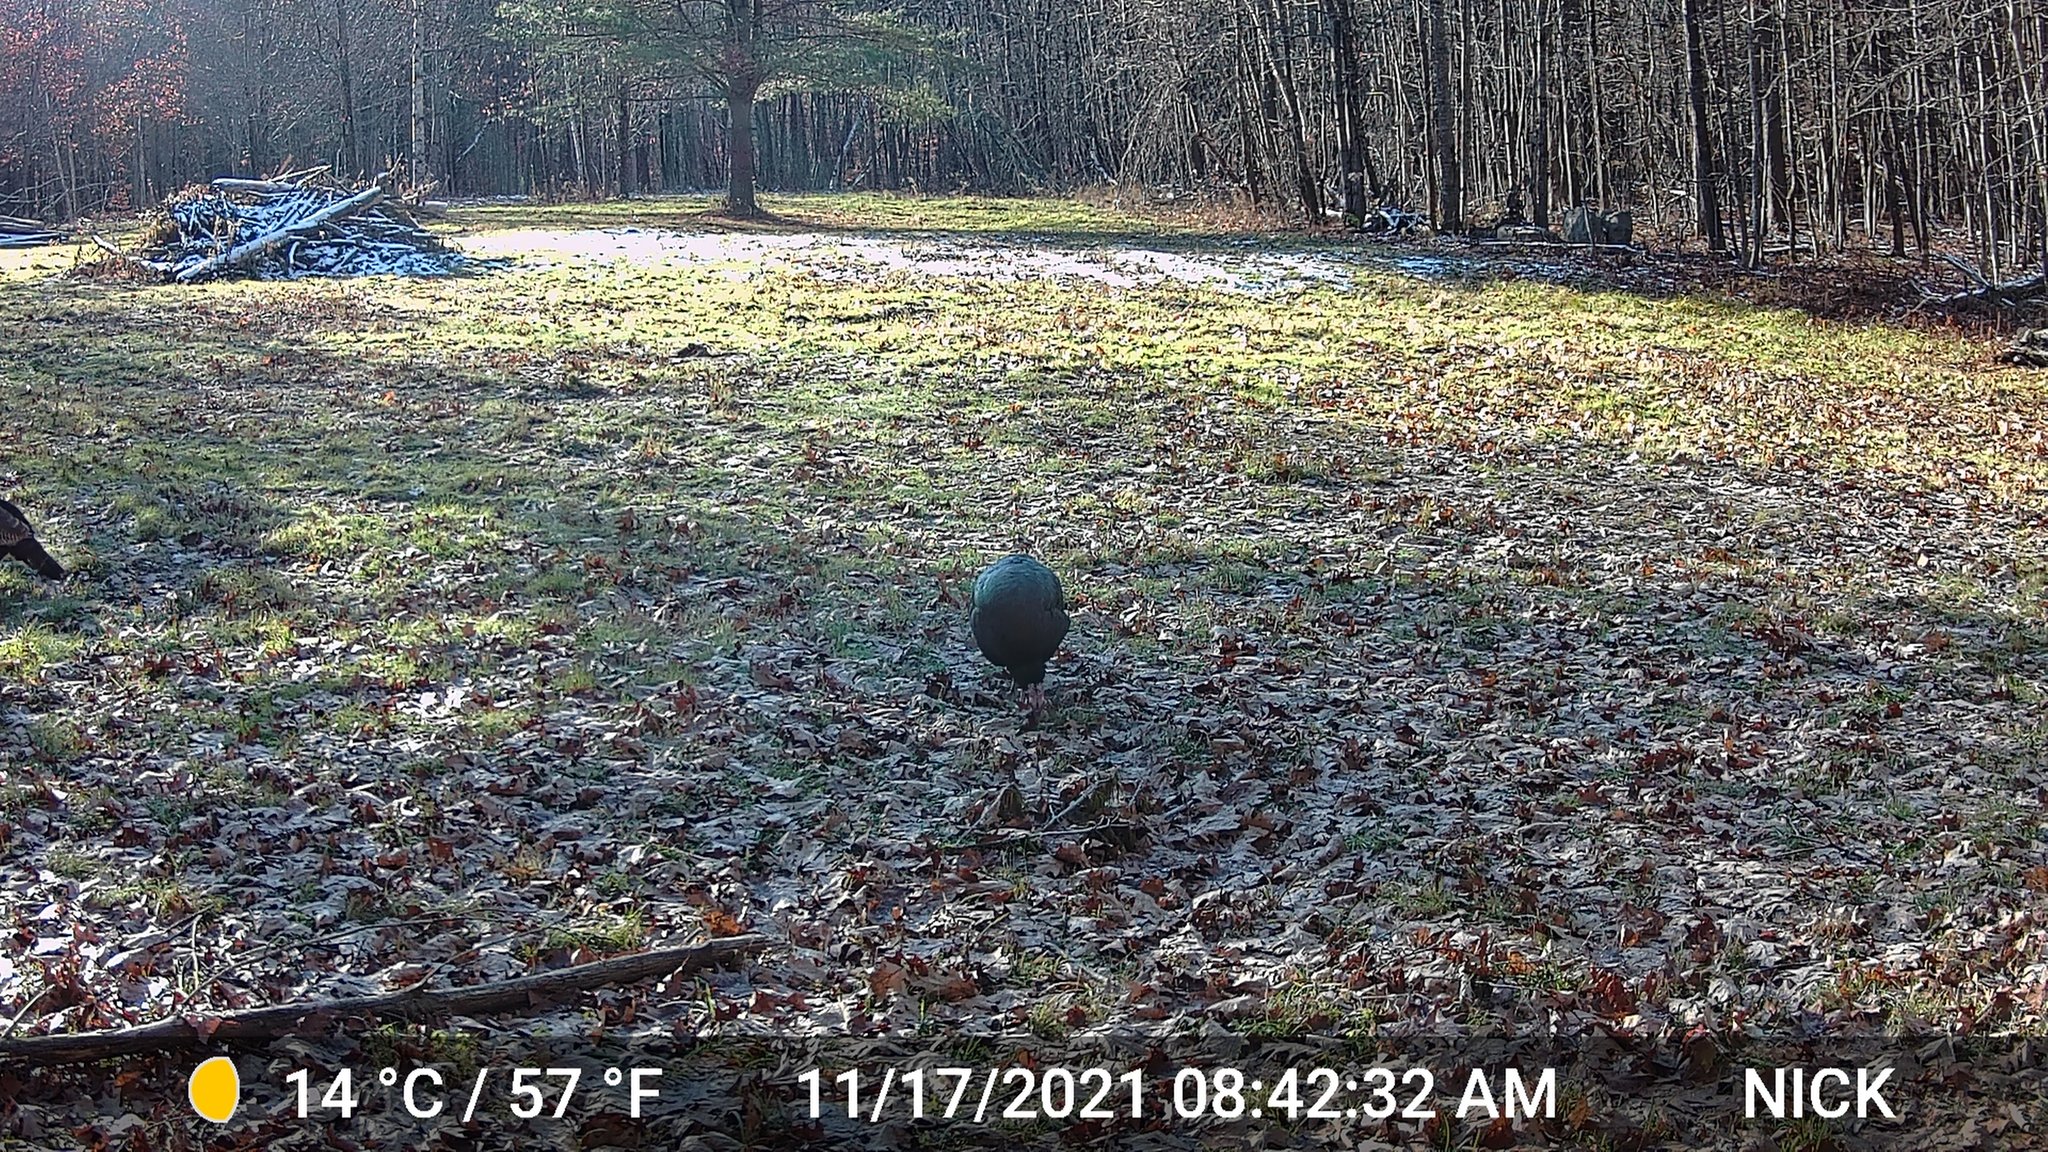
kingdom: Animalia
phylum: Chordata
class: Aves
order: Galliformes
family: Phasianidae
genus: Meleagris
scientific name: Meleagris gallopavo
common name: Wild turkey
